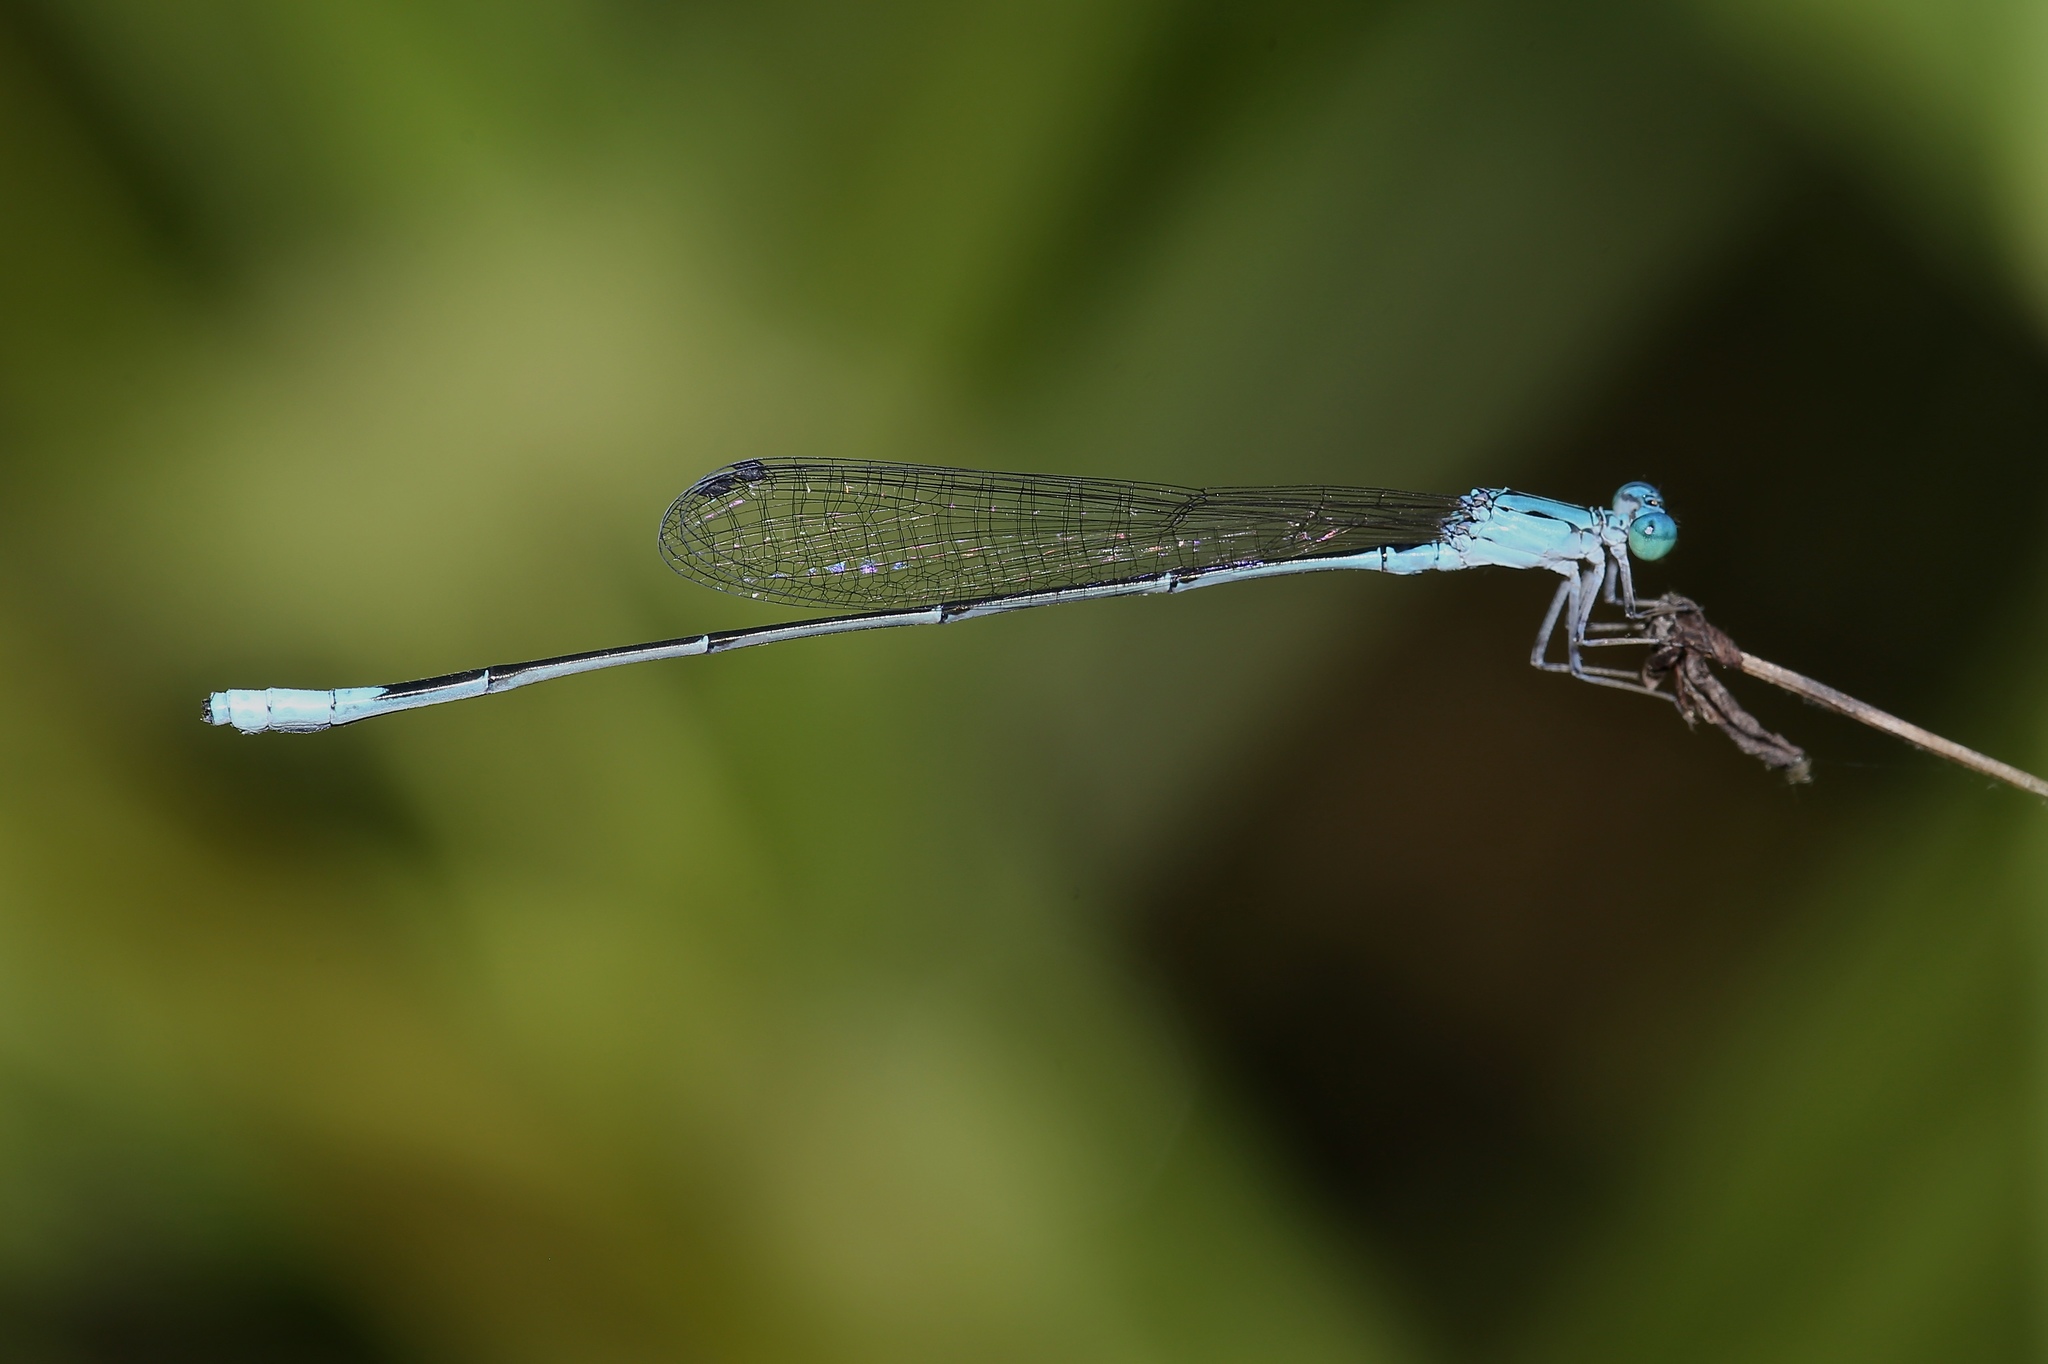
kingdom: Animalia
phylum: Arthropoda
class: Insecta
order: Odonata
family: Coenagrionidae
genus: Enallagma
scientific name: Enallagma daeckii
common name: Attenuated bluet
